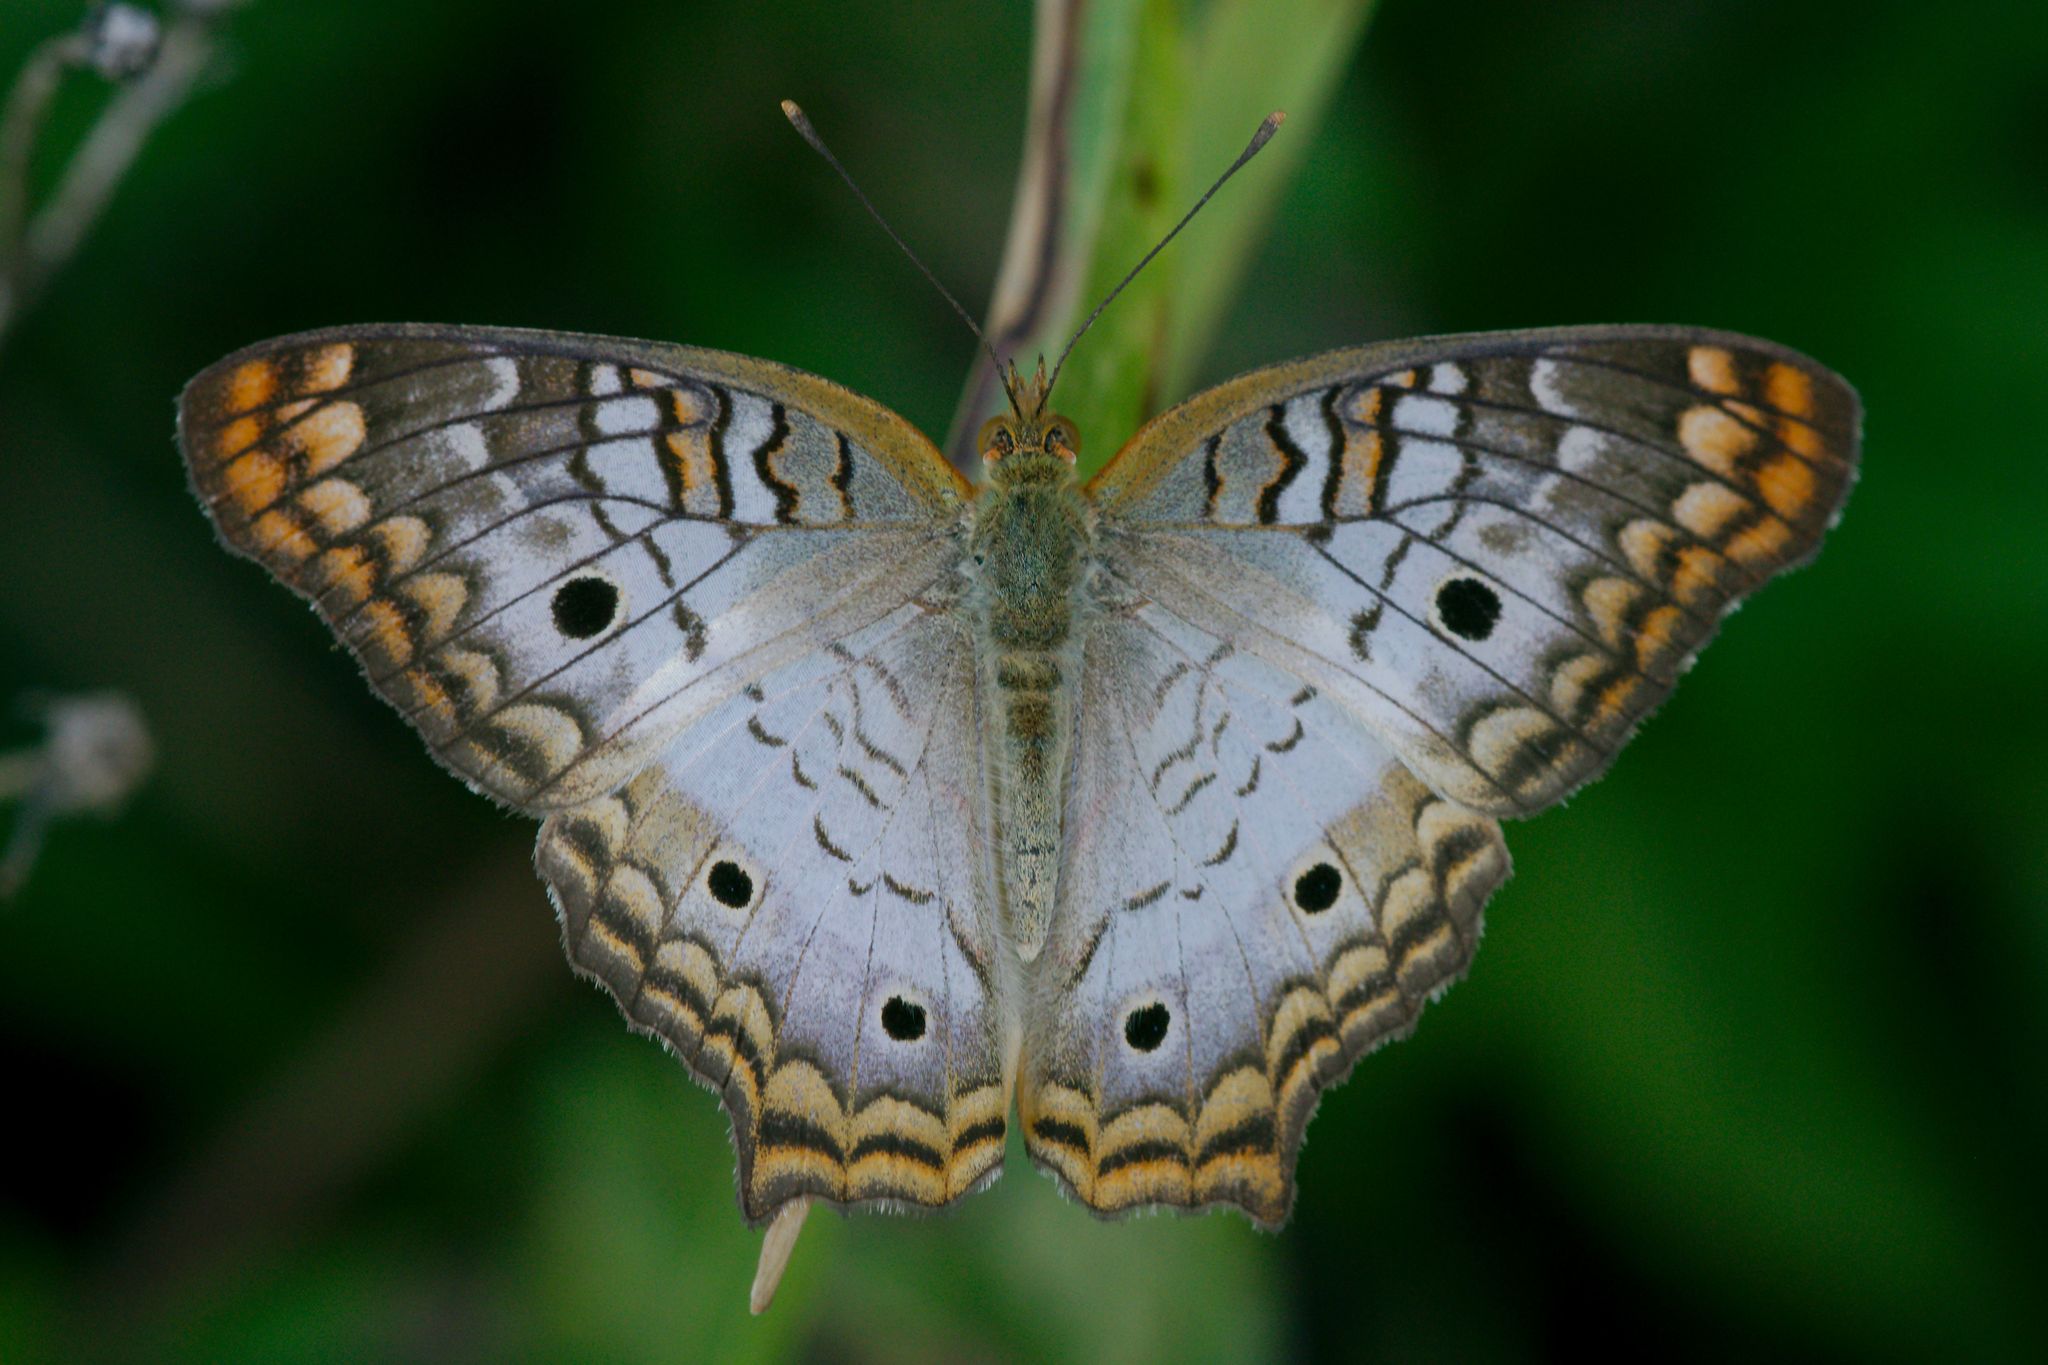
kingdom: Animalia
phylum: Arthropoda
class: Insecta
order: Lepidoptera
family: Nymphalidae
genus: Anartia
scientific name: Anartia jatrophae
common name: White peacock
